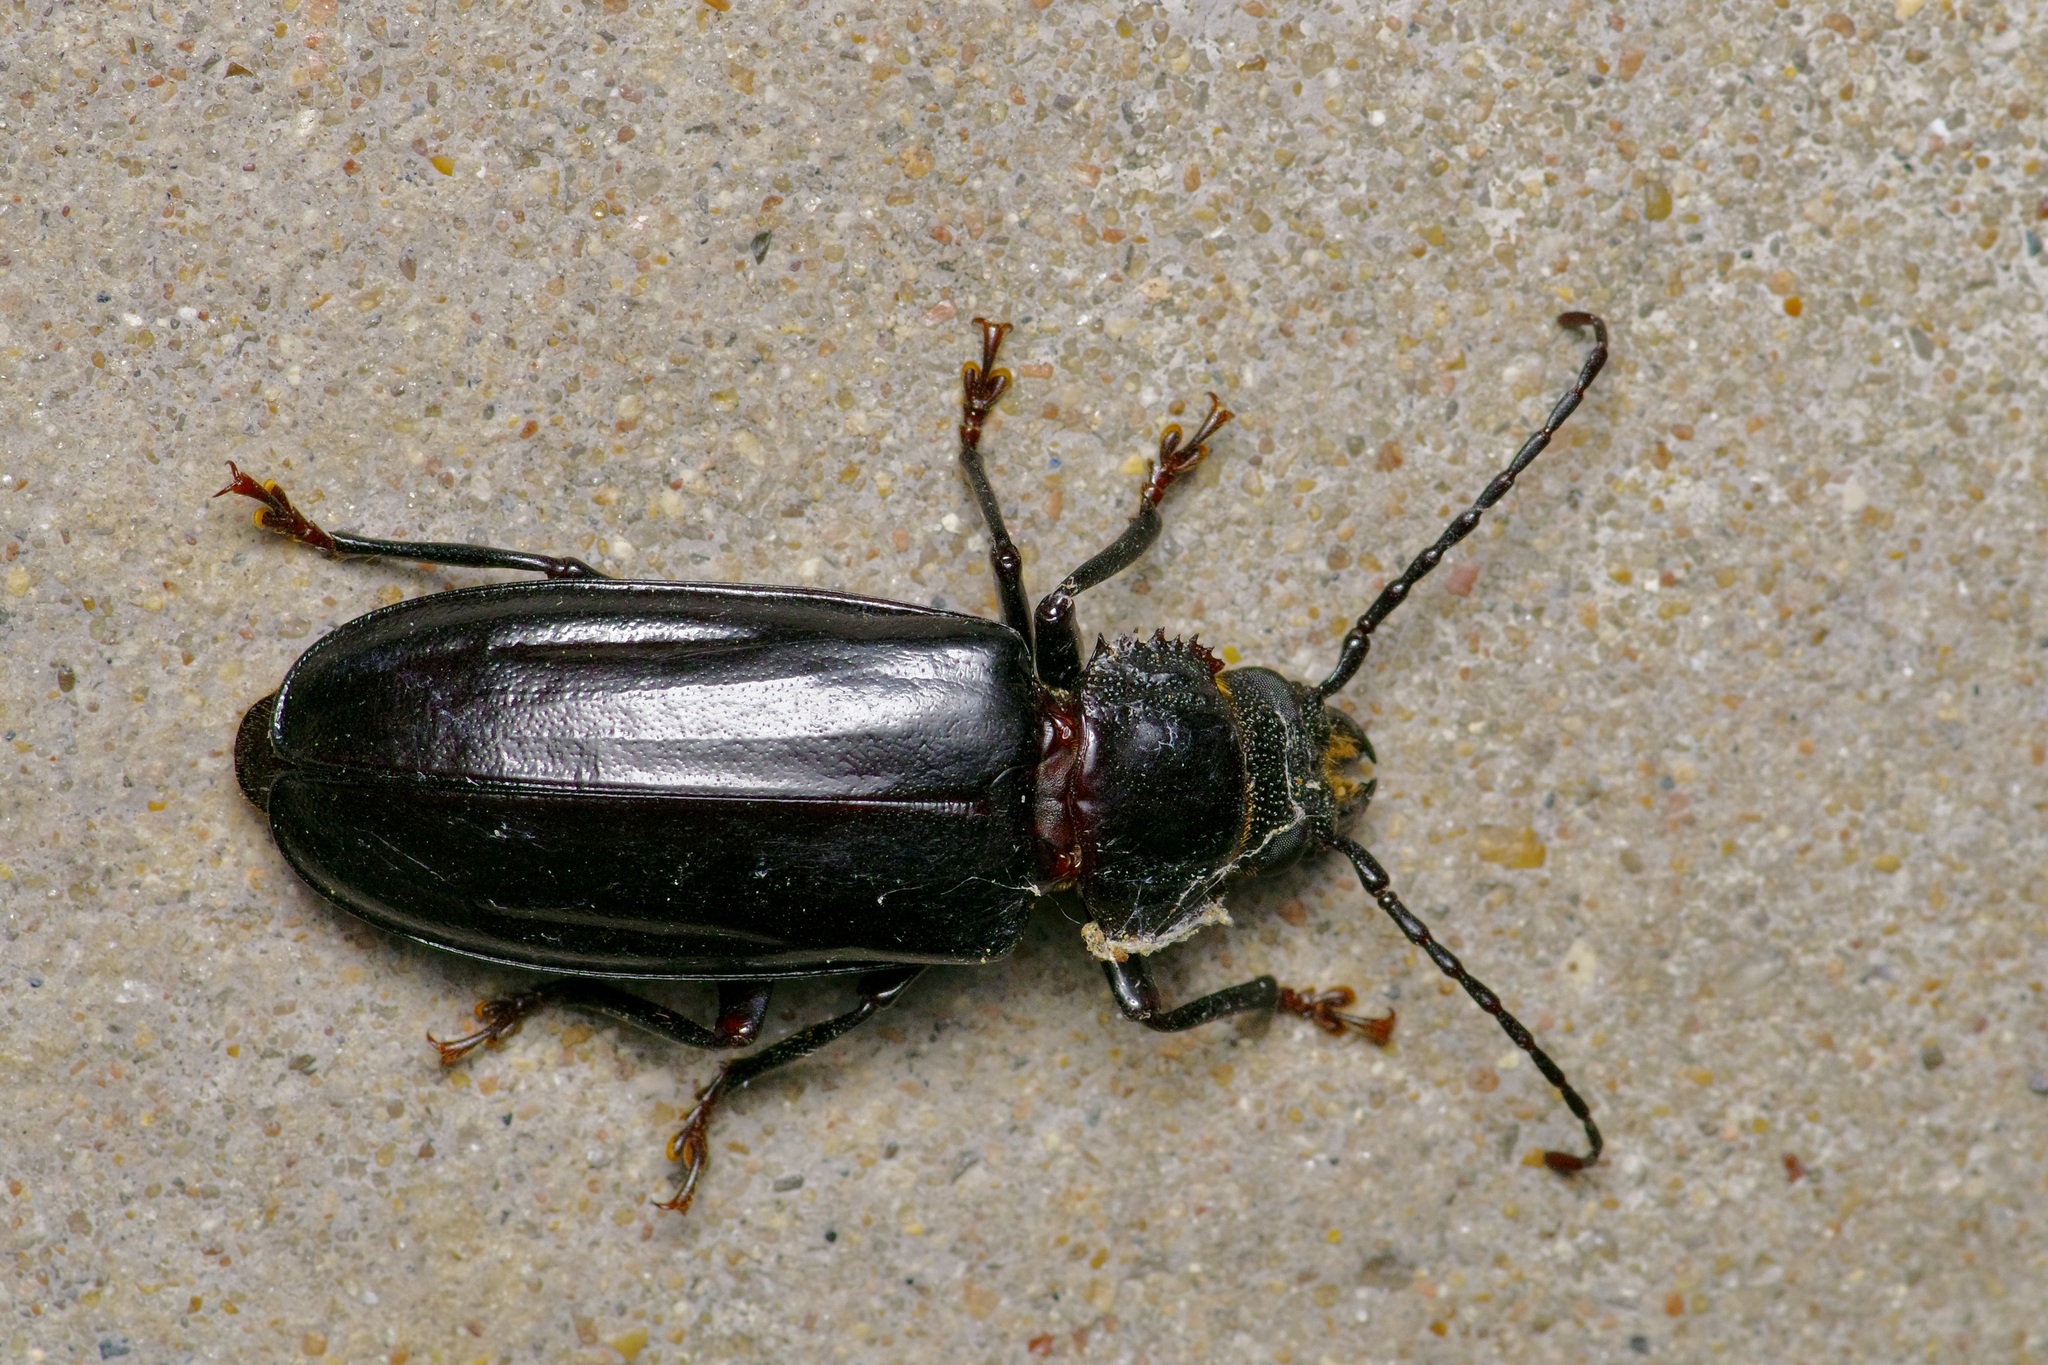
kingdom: Animalia
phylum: Arthropoda
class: Insecta
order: Coleoptera
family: Cerambycidae
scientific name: Cerambycidae
